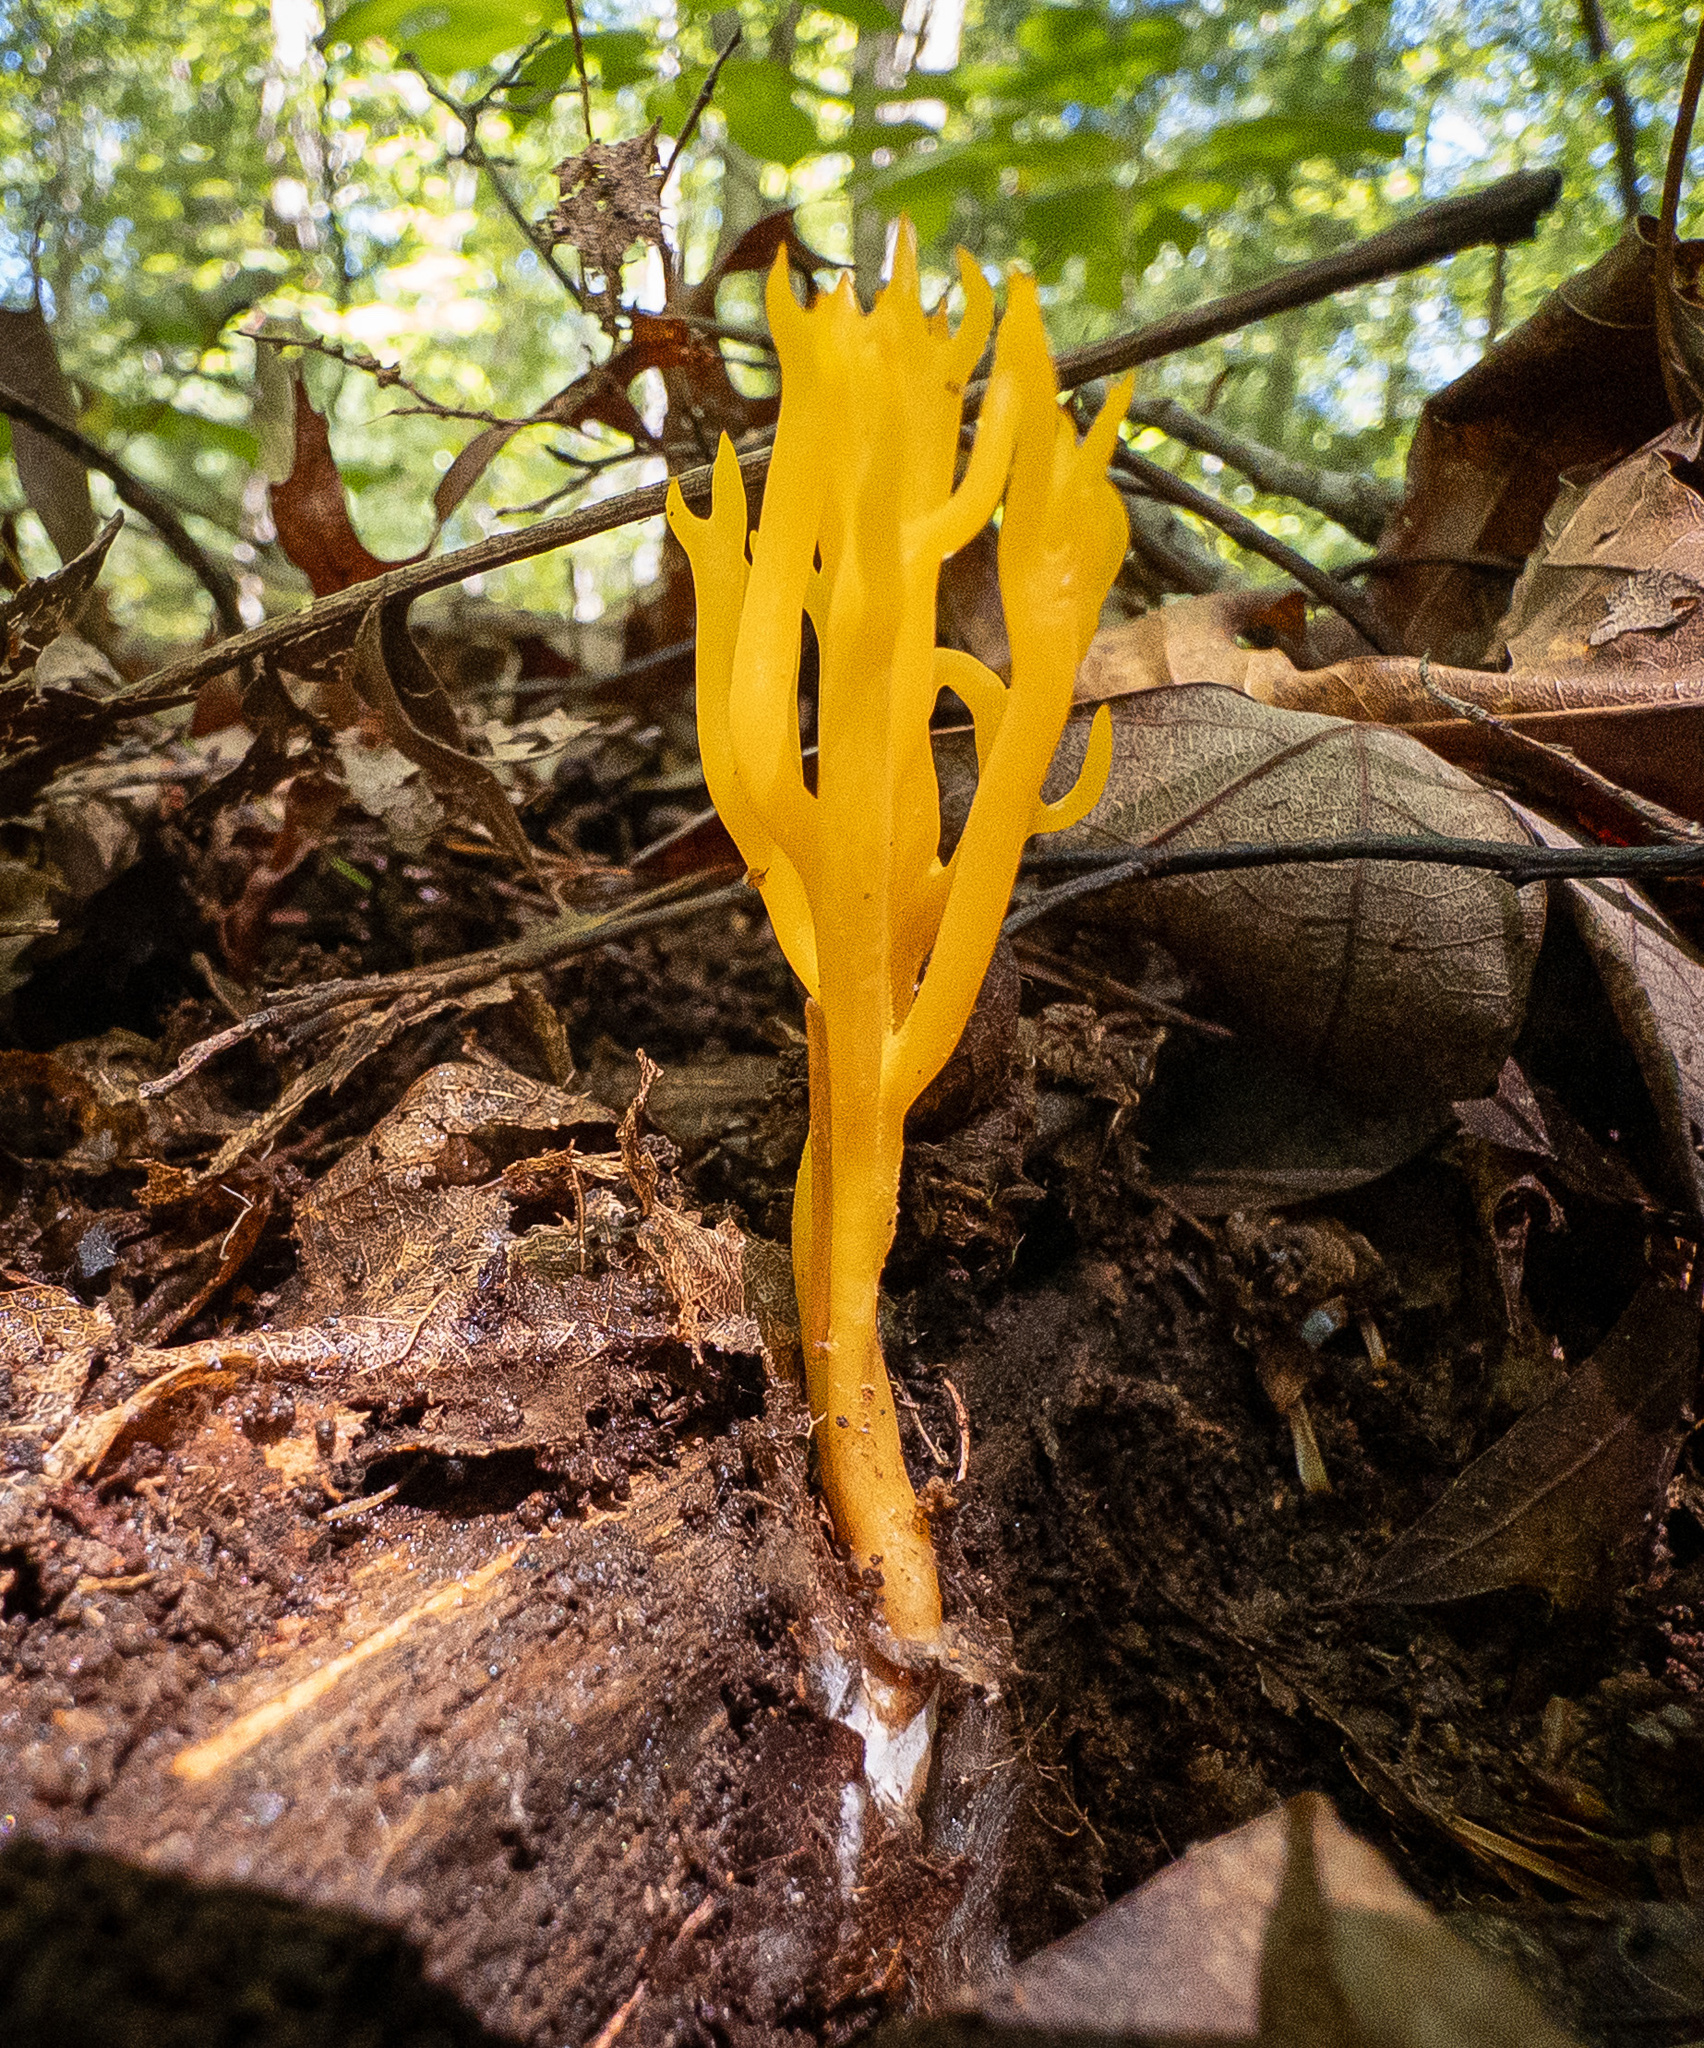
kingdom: Fungi
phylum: Basidiomycota
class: Dacrymycetes
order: Dacrymycetales
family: Dacrymycetaceae
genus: Calocera
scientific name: Calocera viscosa
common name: Yellow stagshorn
